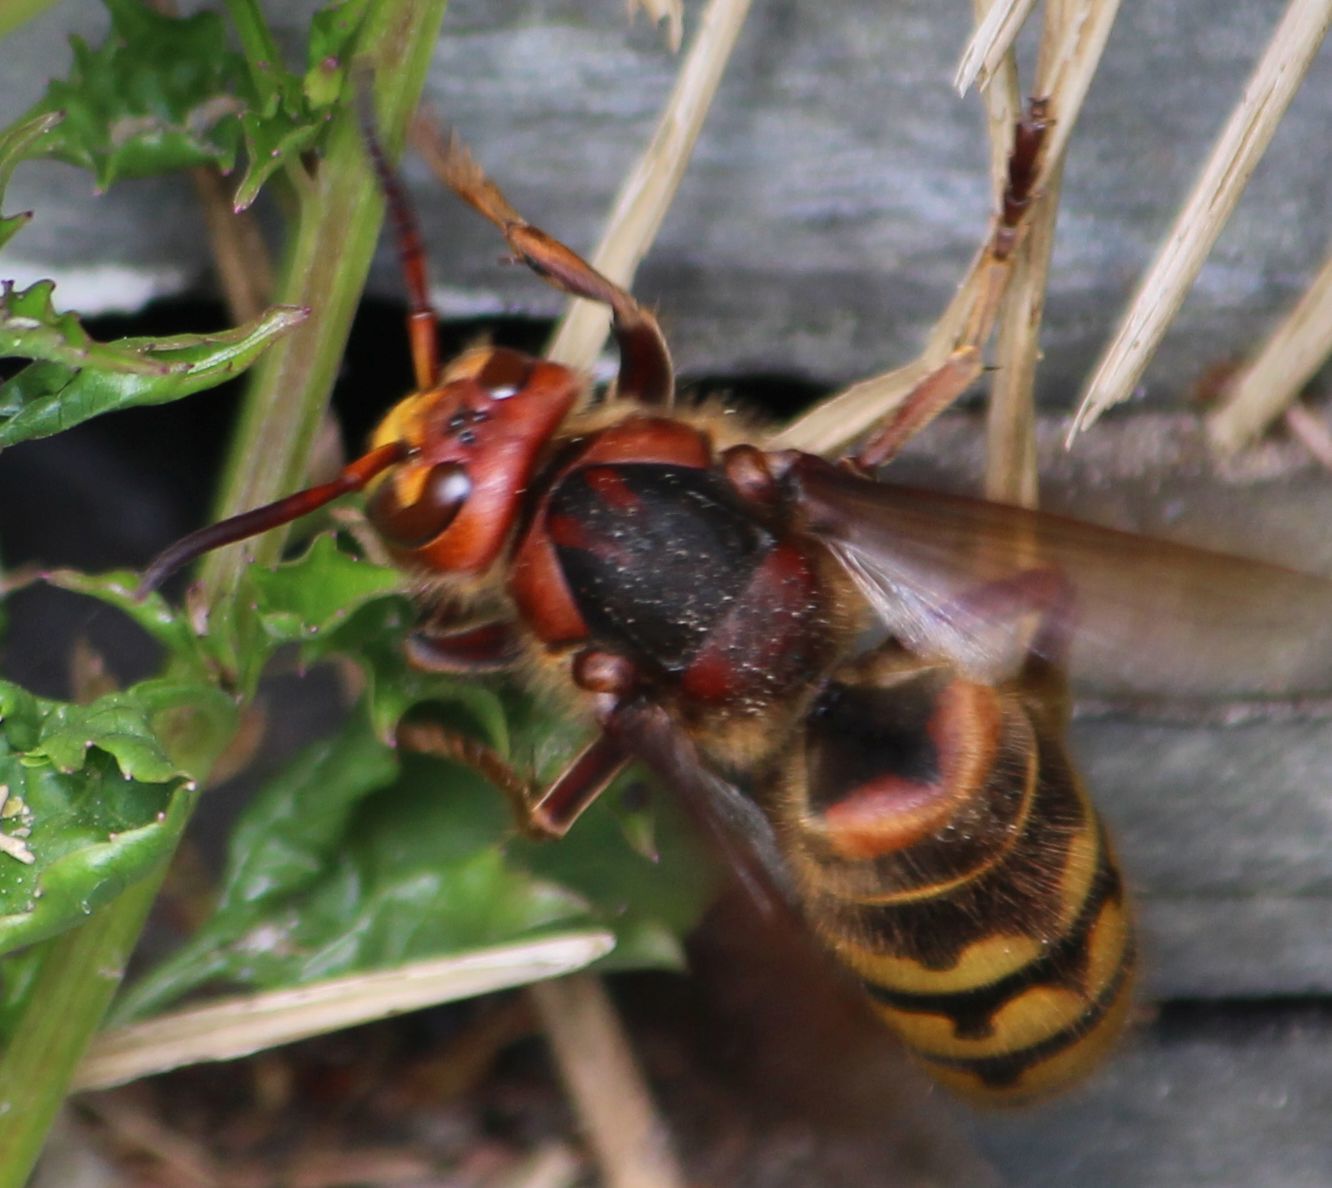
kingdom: Animalia
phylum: Arthropoda
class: Insecta
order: Hymenoptera
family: Vespidae
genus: Vespa
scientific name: Vespa crabro
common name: Hornet
